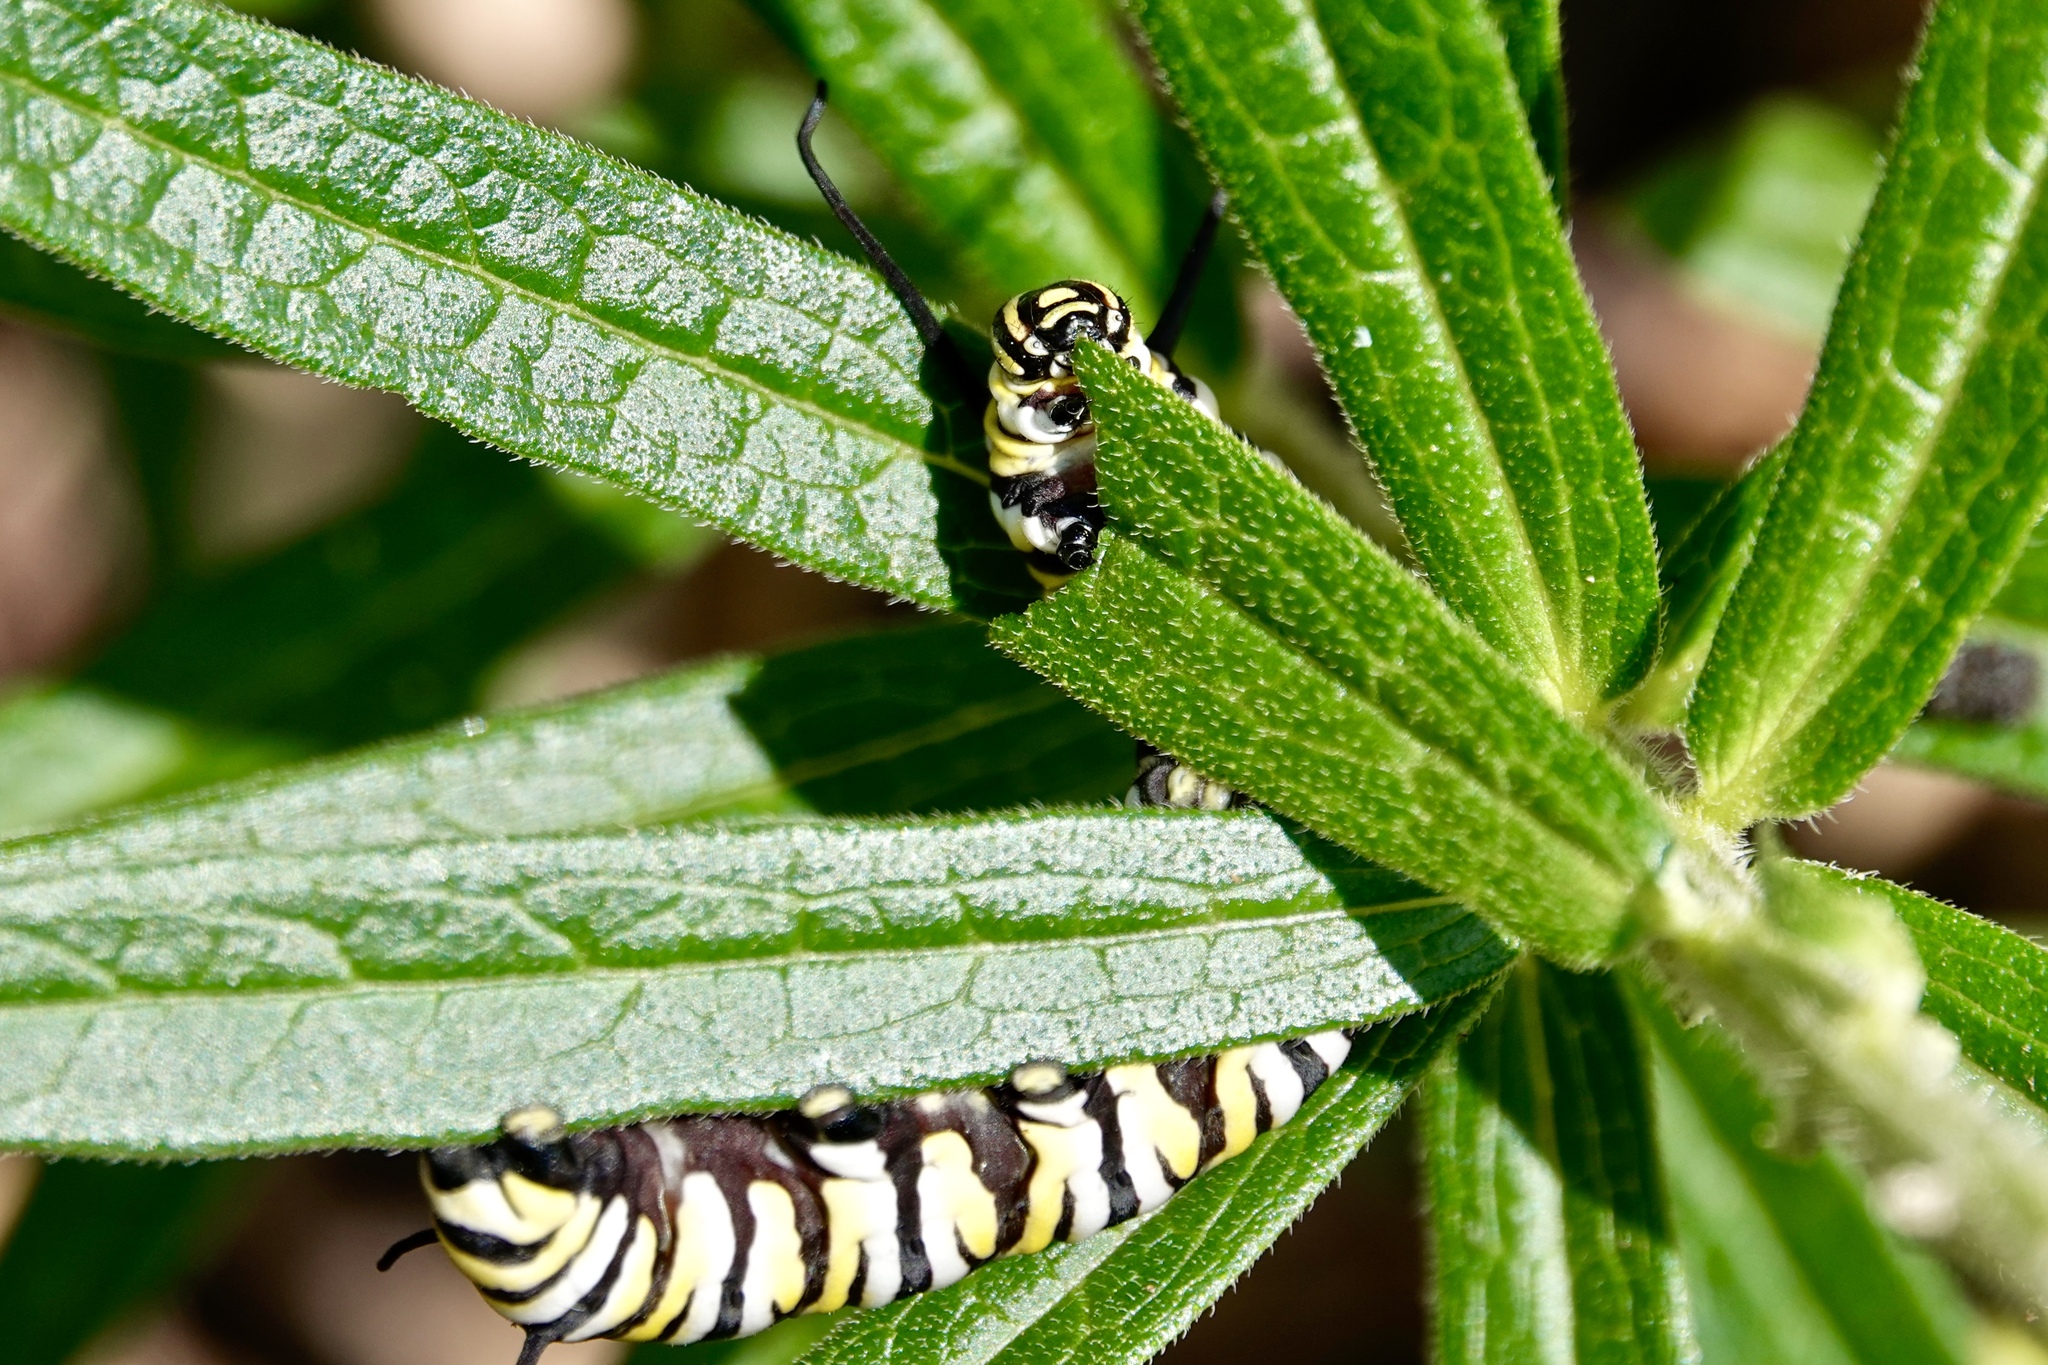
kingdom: Animalia
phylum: Arthropoda
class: Insecta
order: Lepidoptera
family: Nymphalidae
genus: Danaus
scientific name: Danaus plexippus
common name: Monarch
